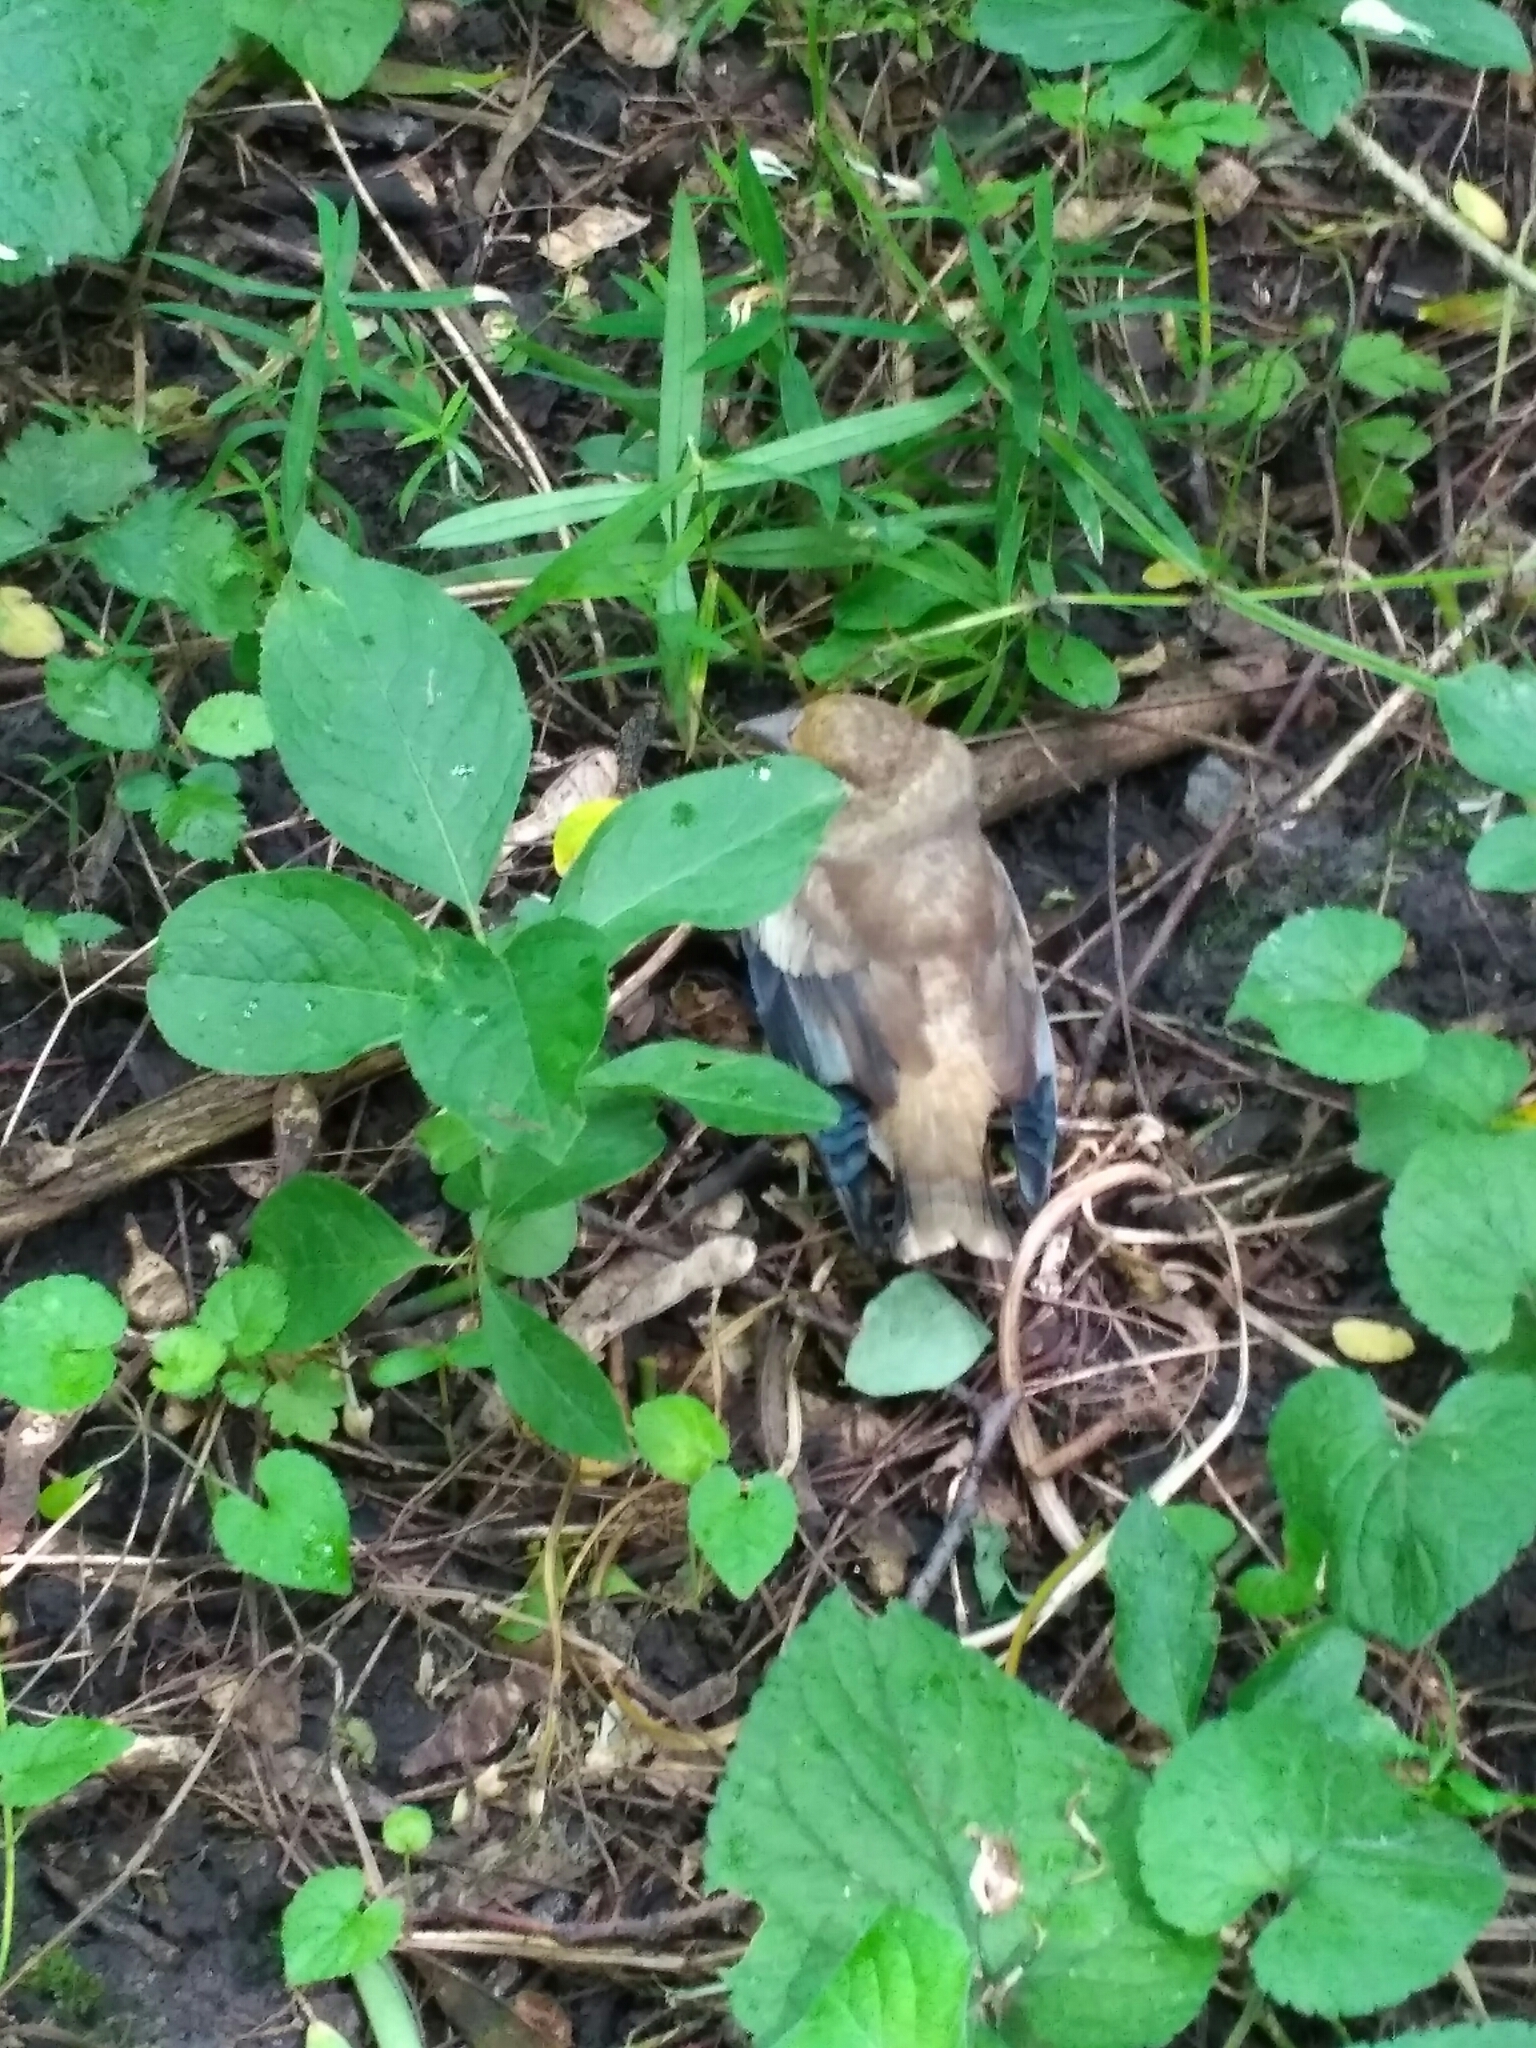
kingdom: Animalia
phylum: Chordata
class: Aves
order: Passeriformes
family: Fringillidae
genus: Coccothraustes
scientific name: Coccothraustes coccothraustes
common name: Hawfinch
